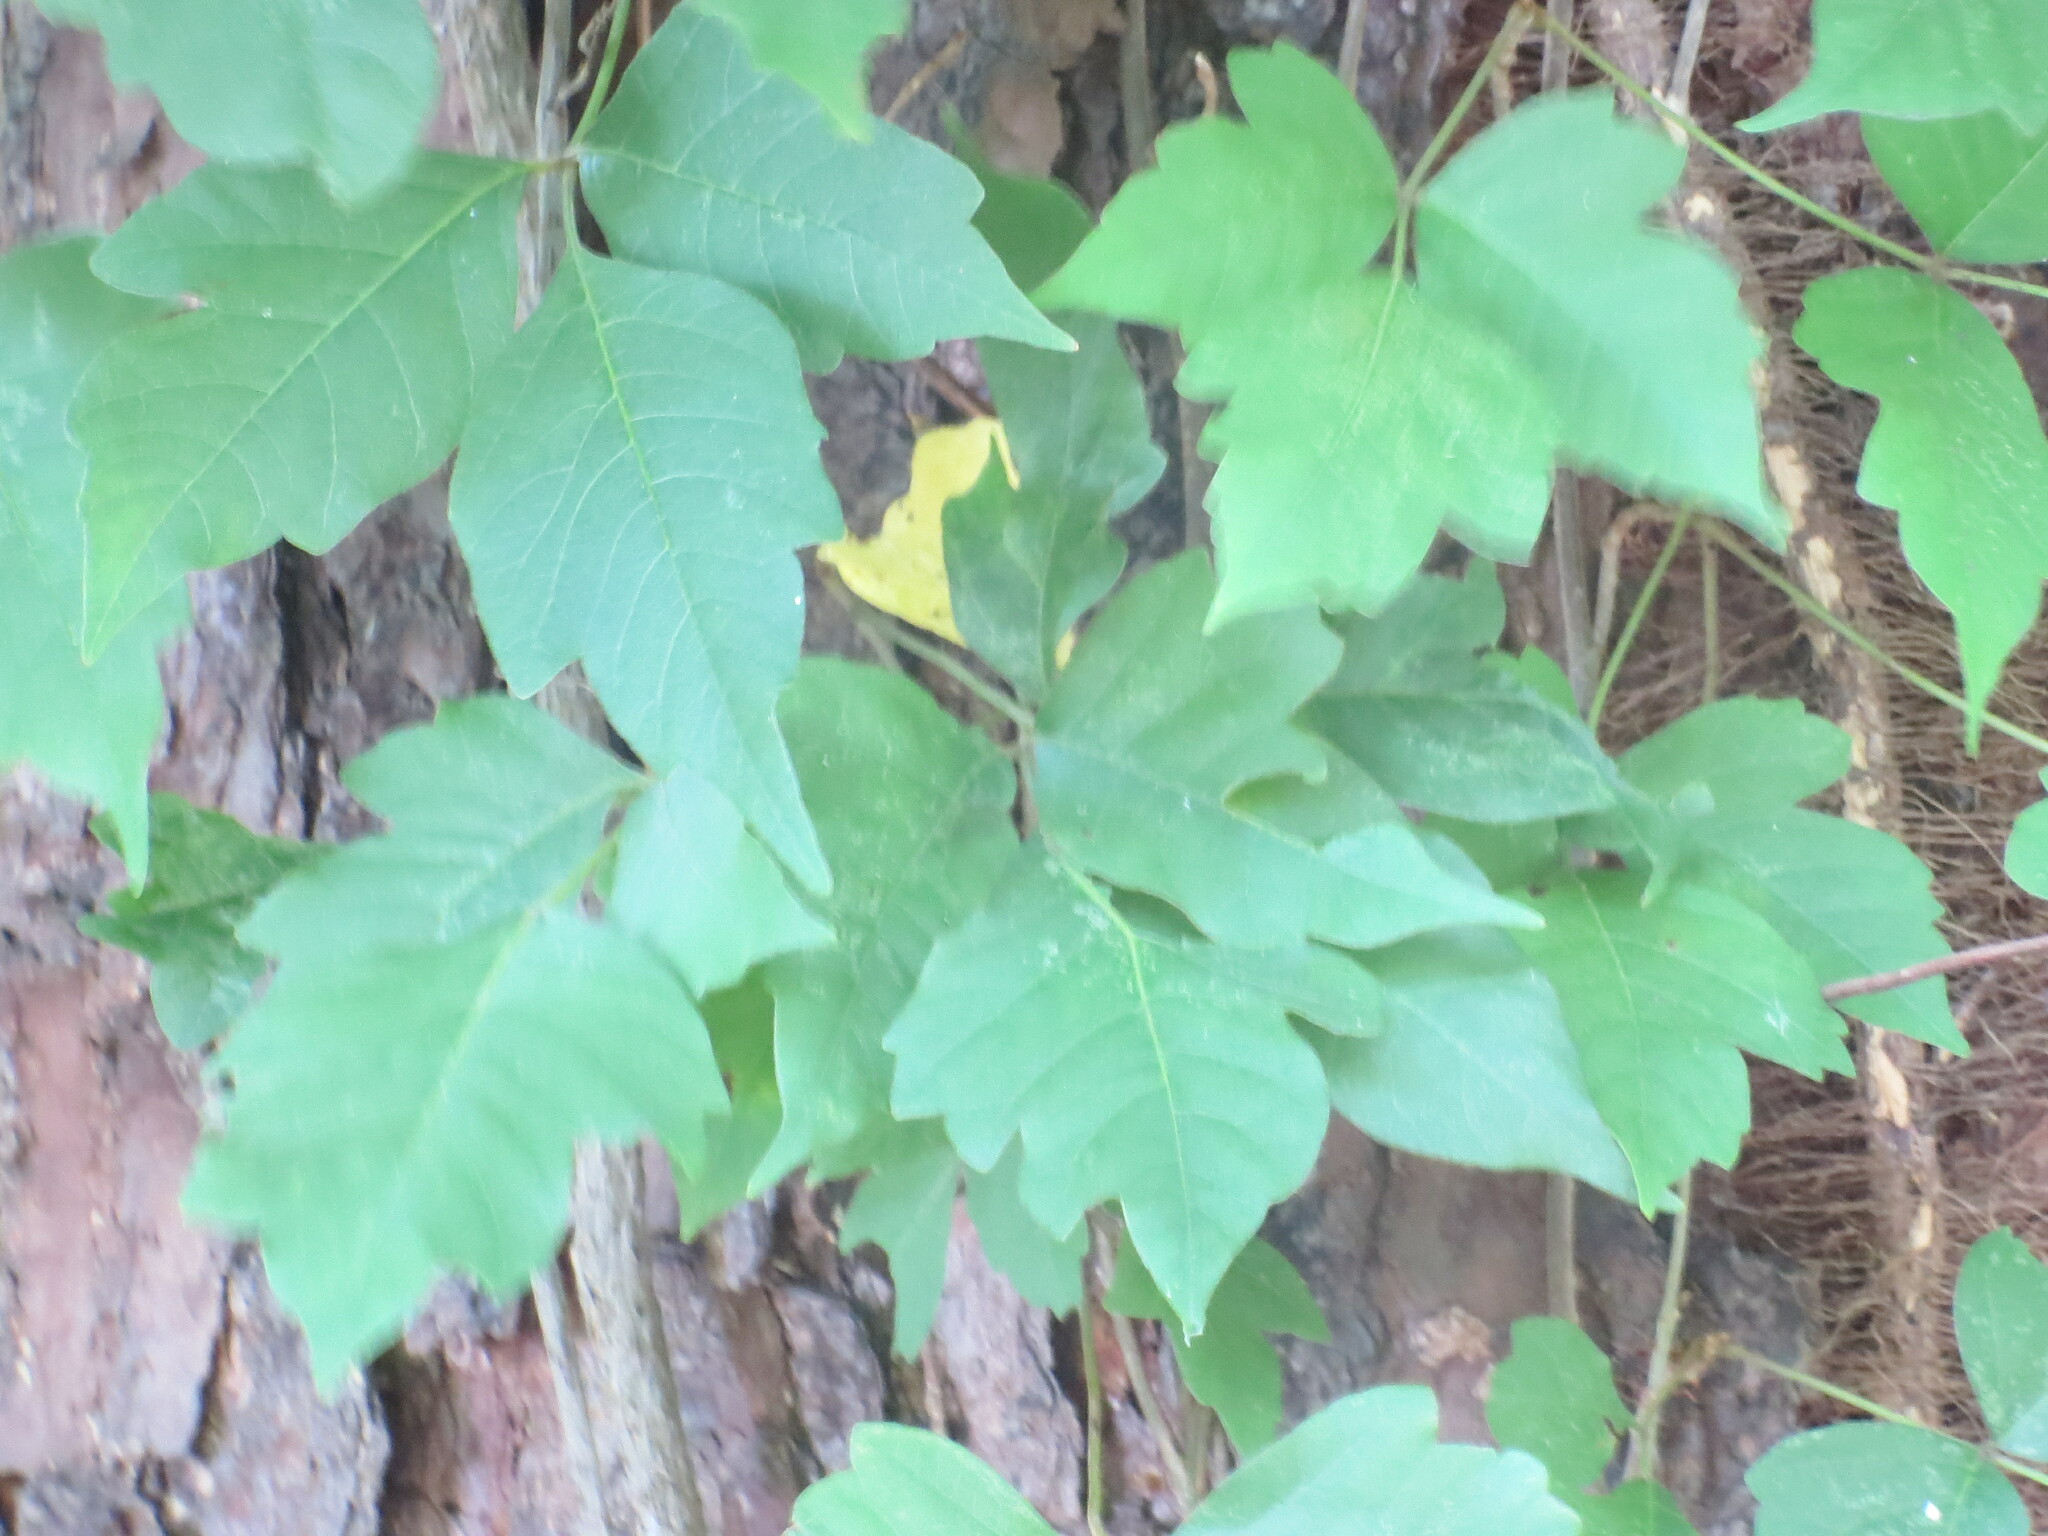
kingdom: Plantae
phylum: Tracheophyta
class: Magnoliopsida
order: Sapindales
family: Anacardiaceae
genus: Toxicodendron
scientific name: Toxicodendron radicans
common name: Poison ivy
